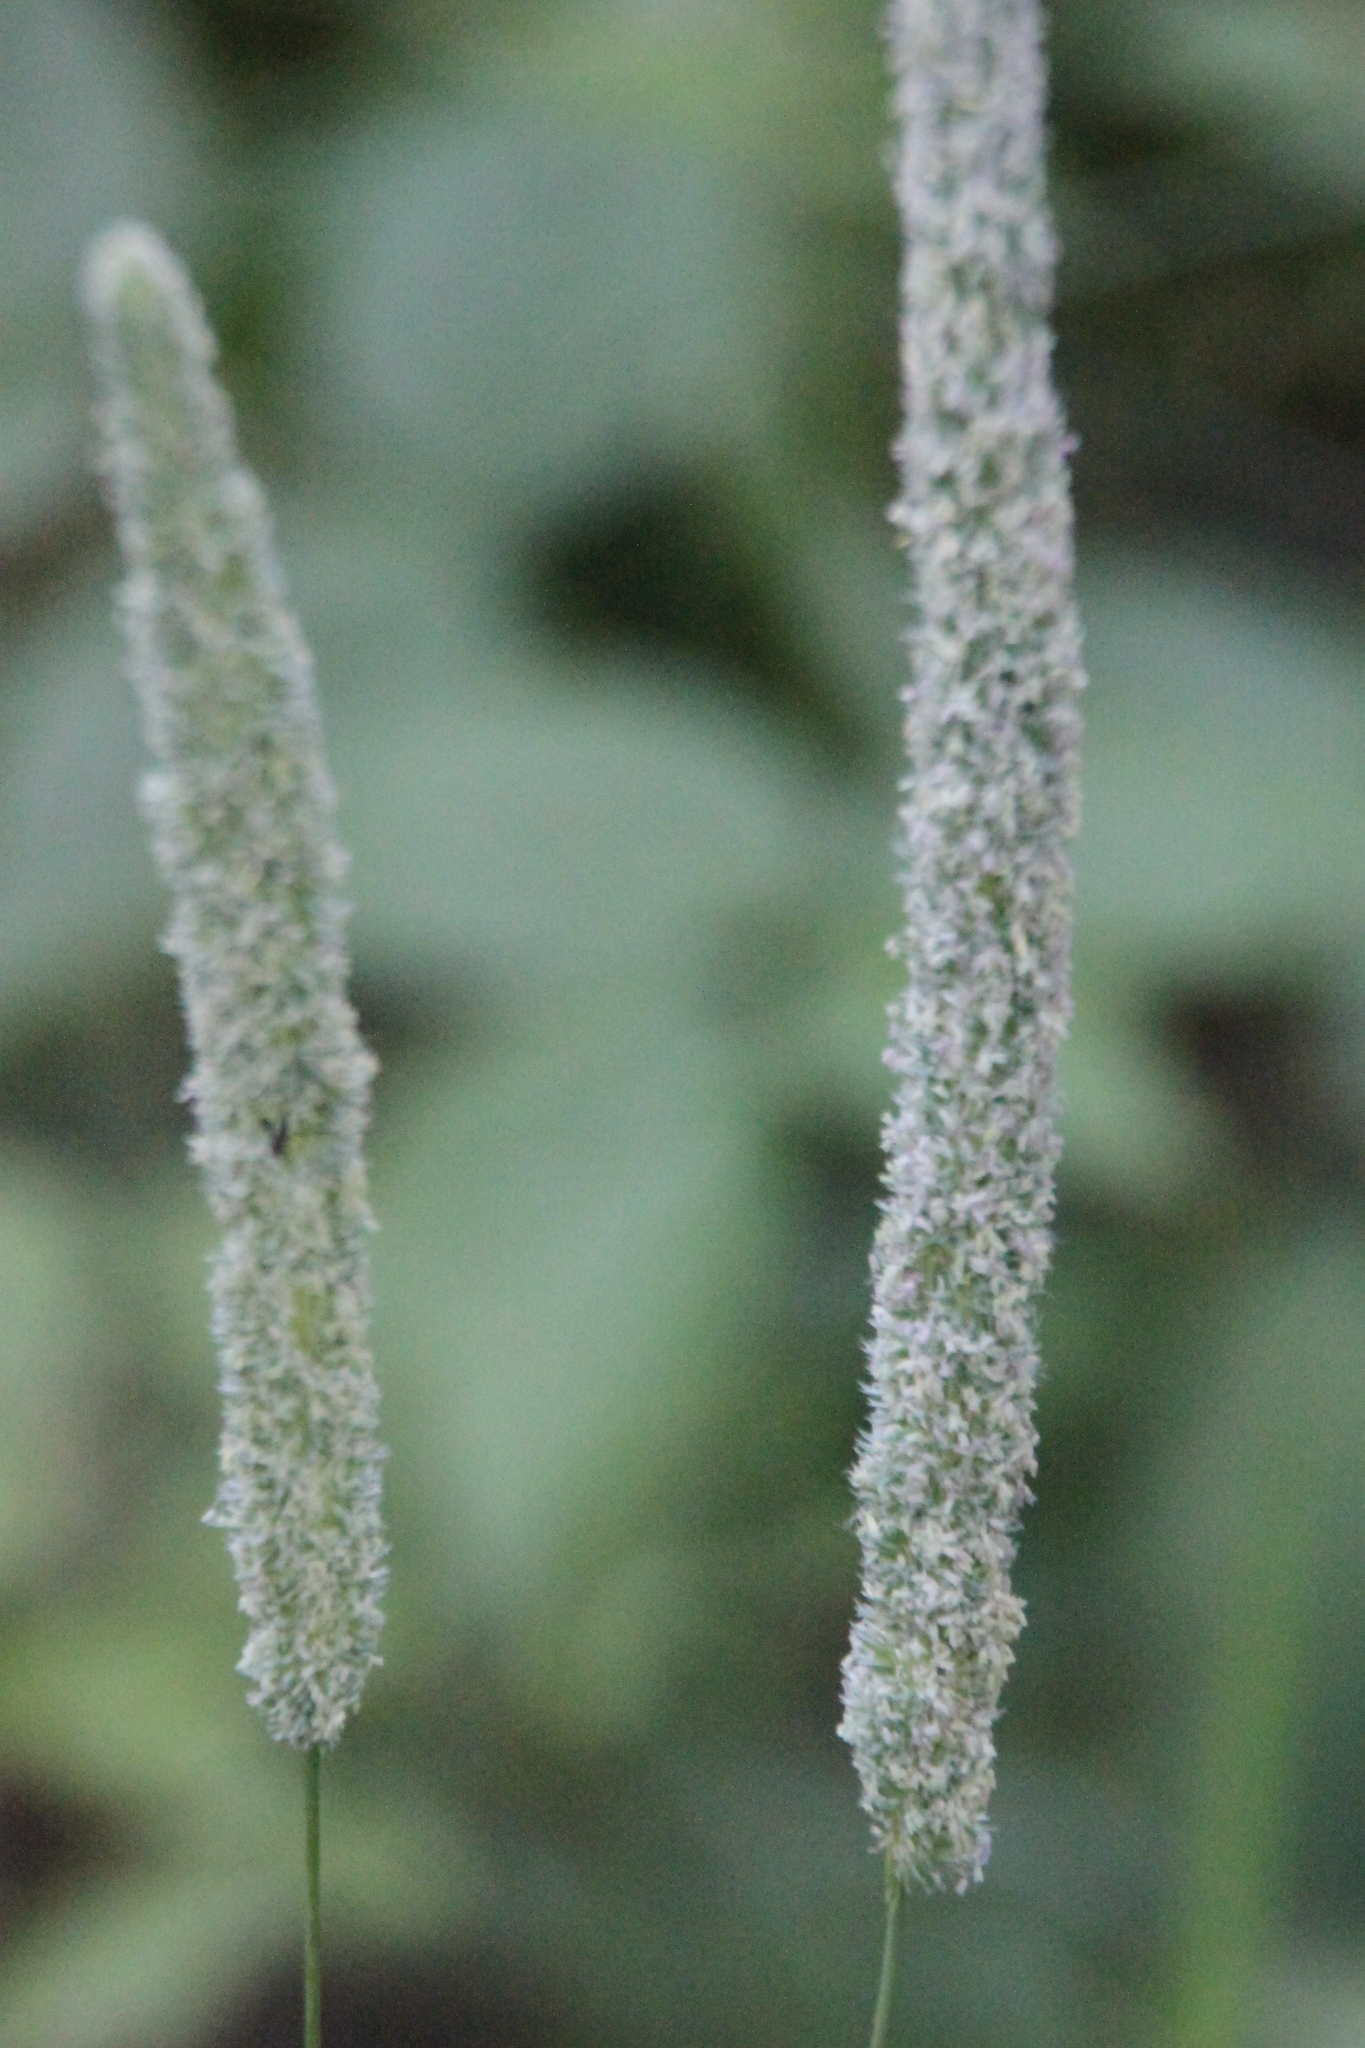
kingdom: Plantae
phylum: Tracheophyta
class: Liliopsida
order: Poales
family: Poaceae
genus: Phleum
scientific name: Phleum pratense
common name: Timothy grass
